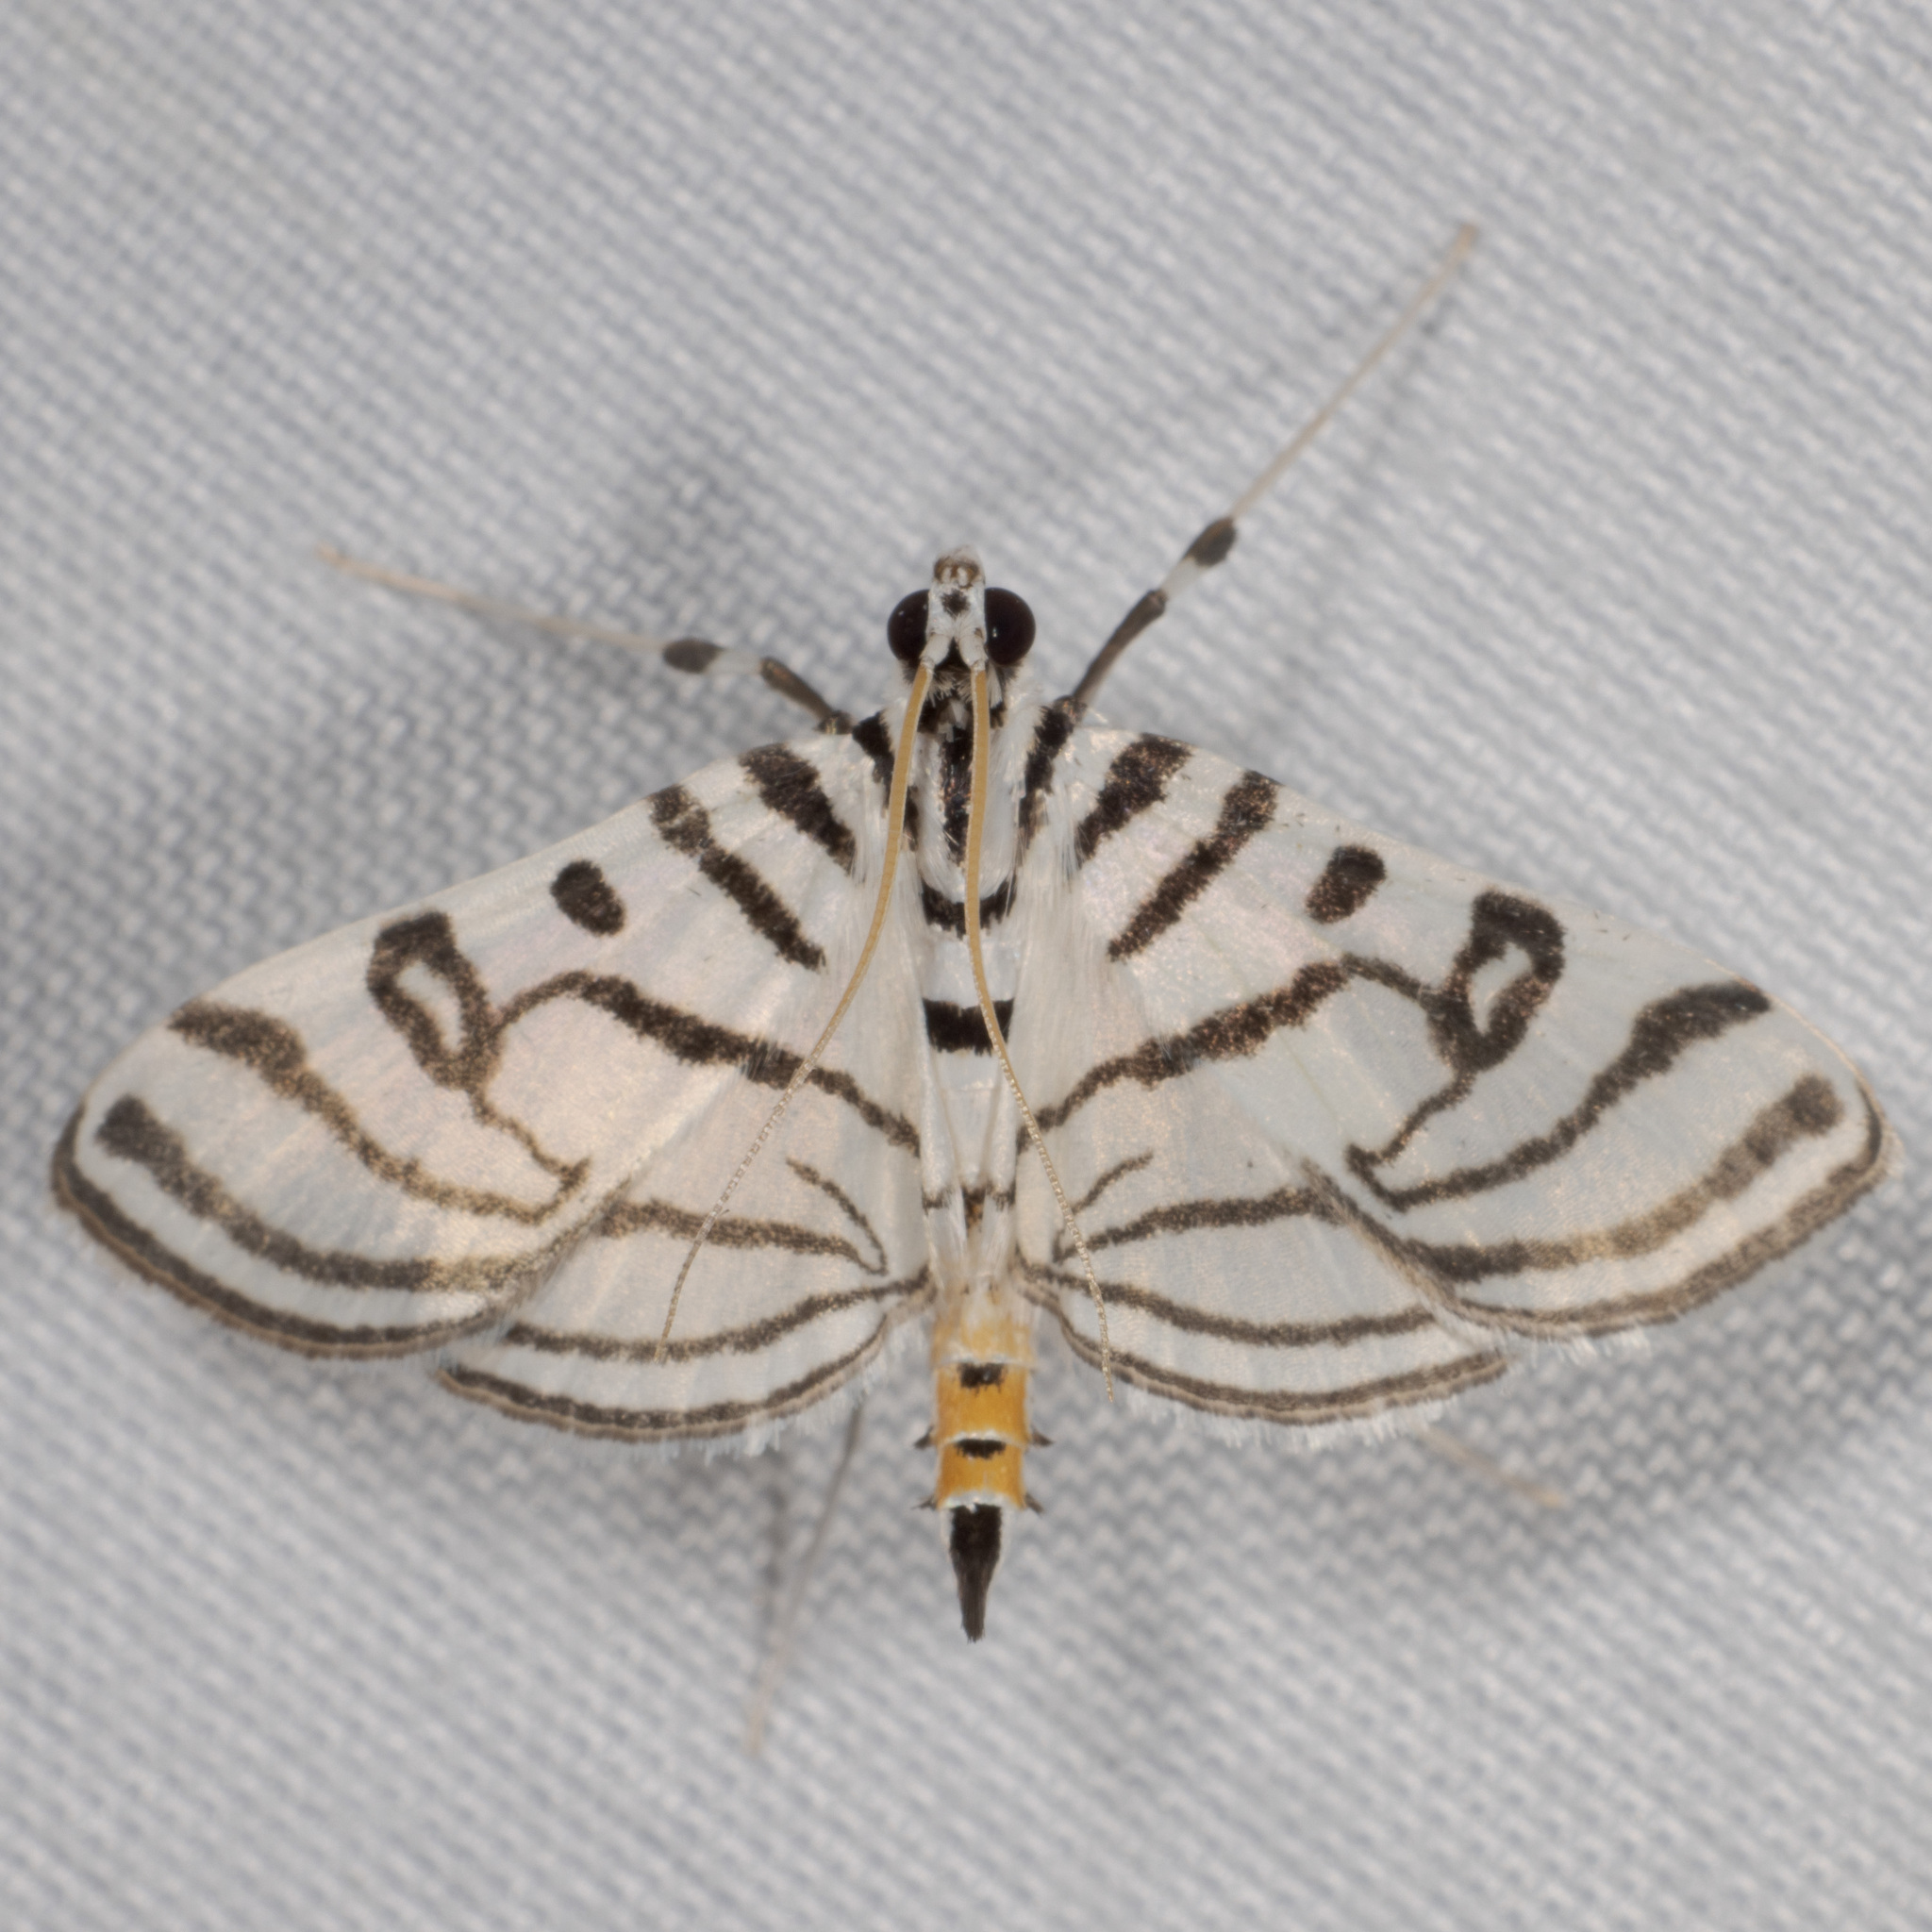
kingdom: Animalia
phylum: Arthropoda
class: Insecta
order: Lepidoptera
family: Crambidae
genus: Conchylodes
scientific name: Conchylodes ovulalis
